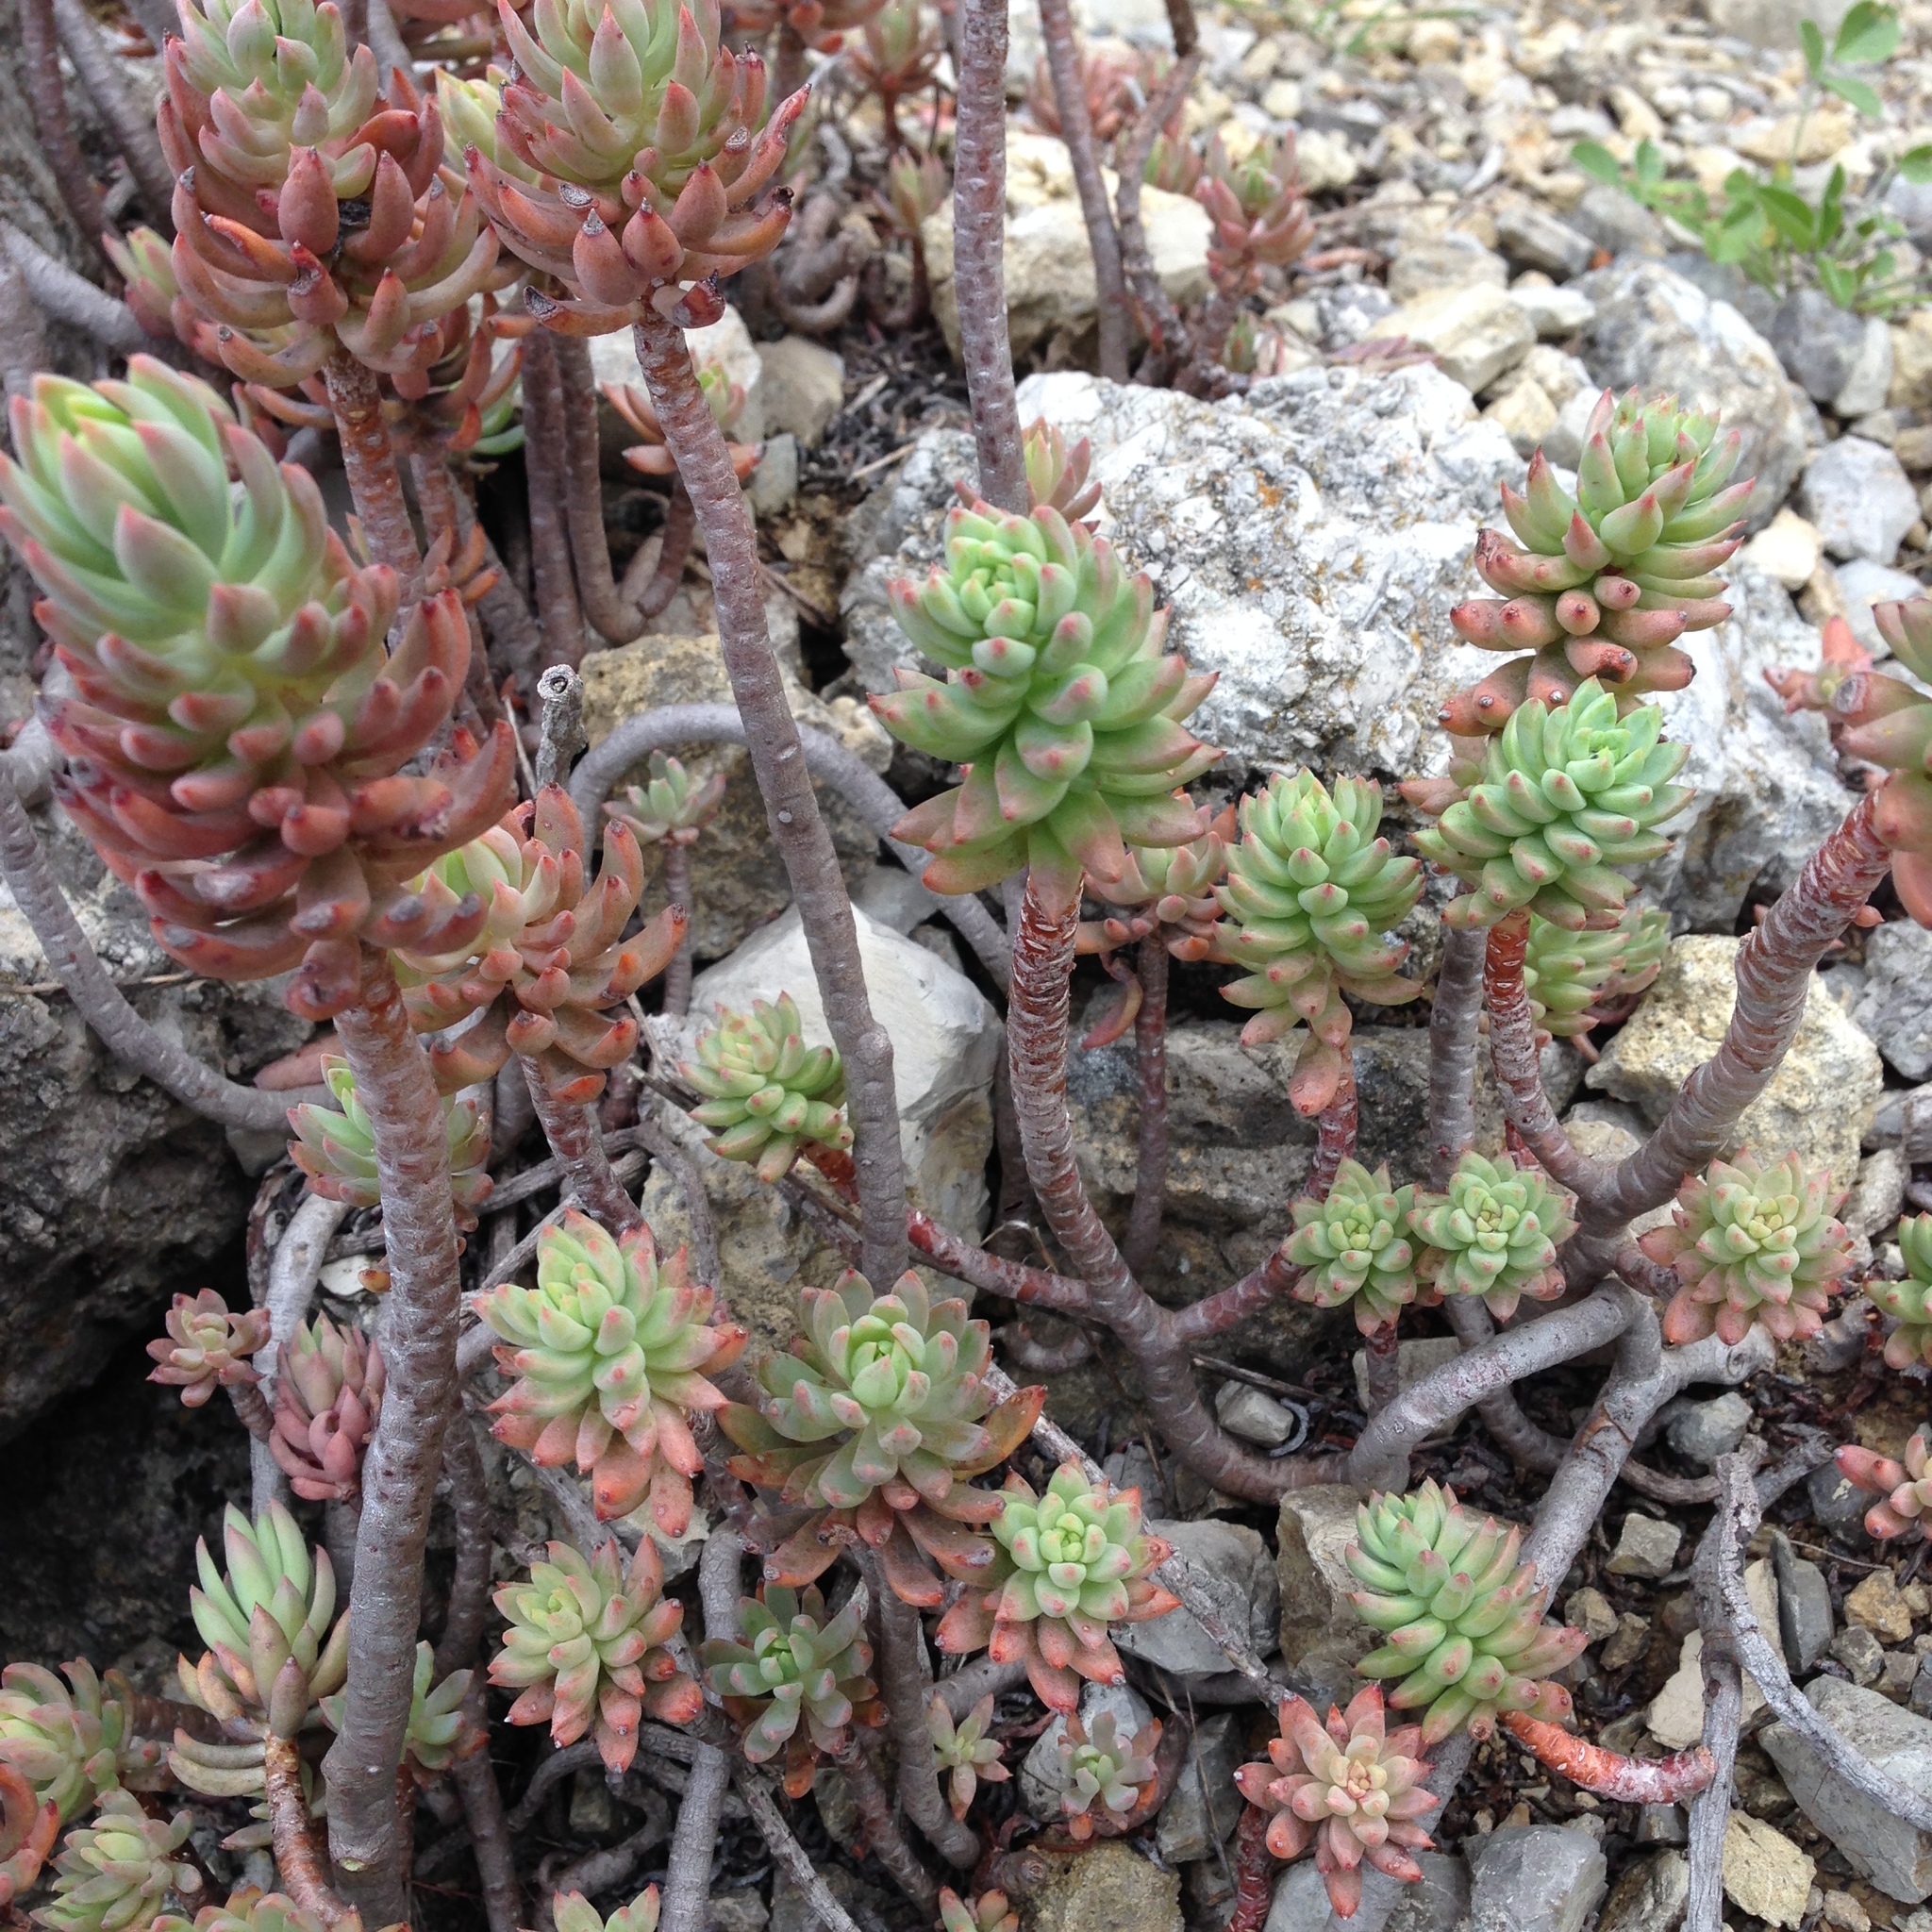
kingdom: Plantae
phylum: Tracheophyta
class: Magnoliopsida
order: Saxifragales
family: Crassulaceae
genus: Petrosedum
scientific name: Petrosedum sediforme
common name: Pale stonecrop
